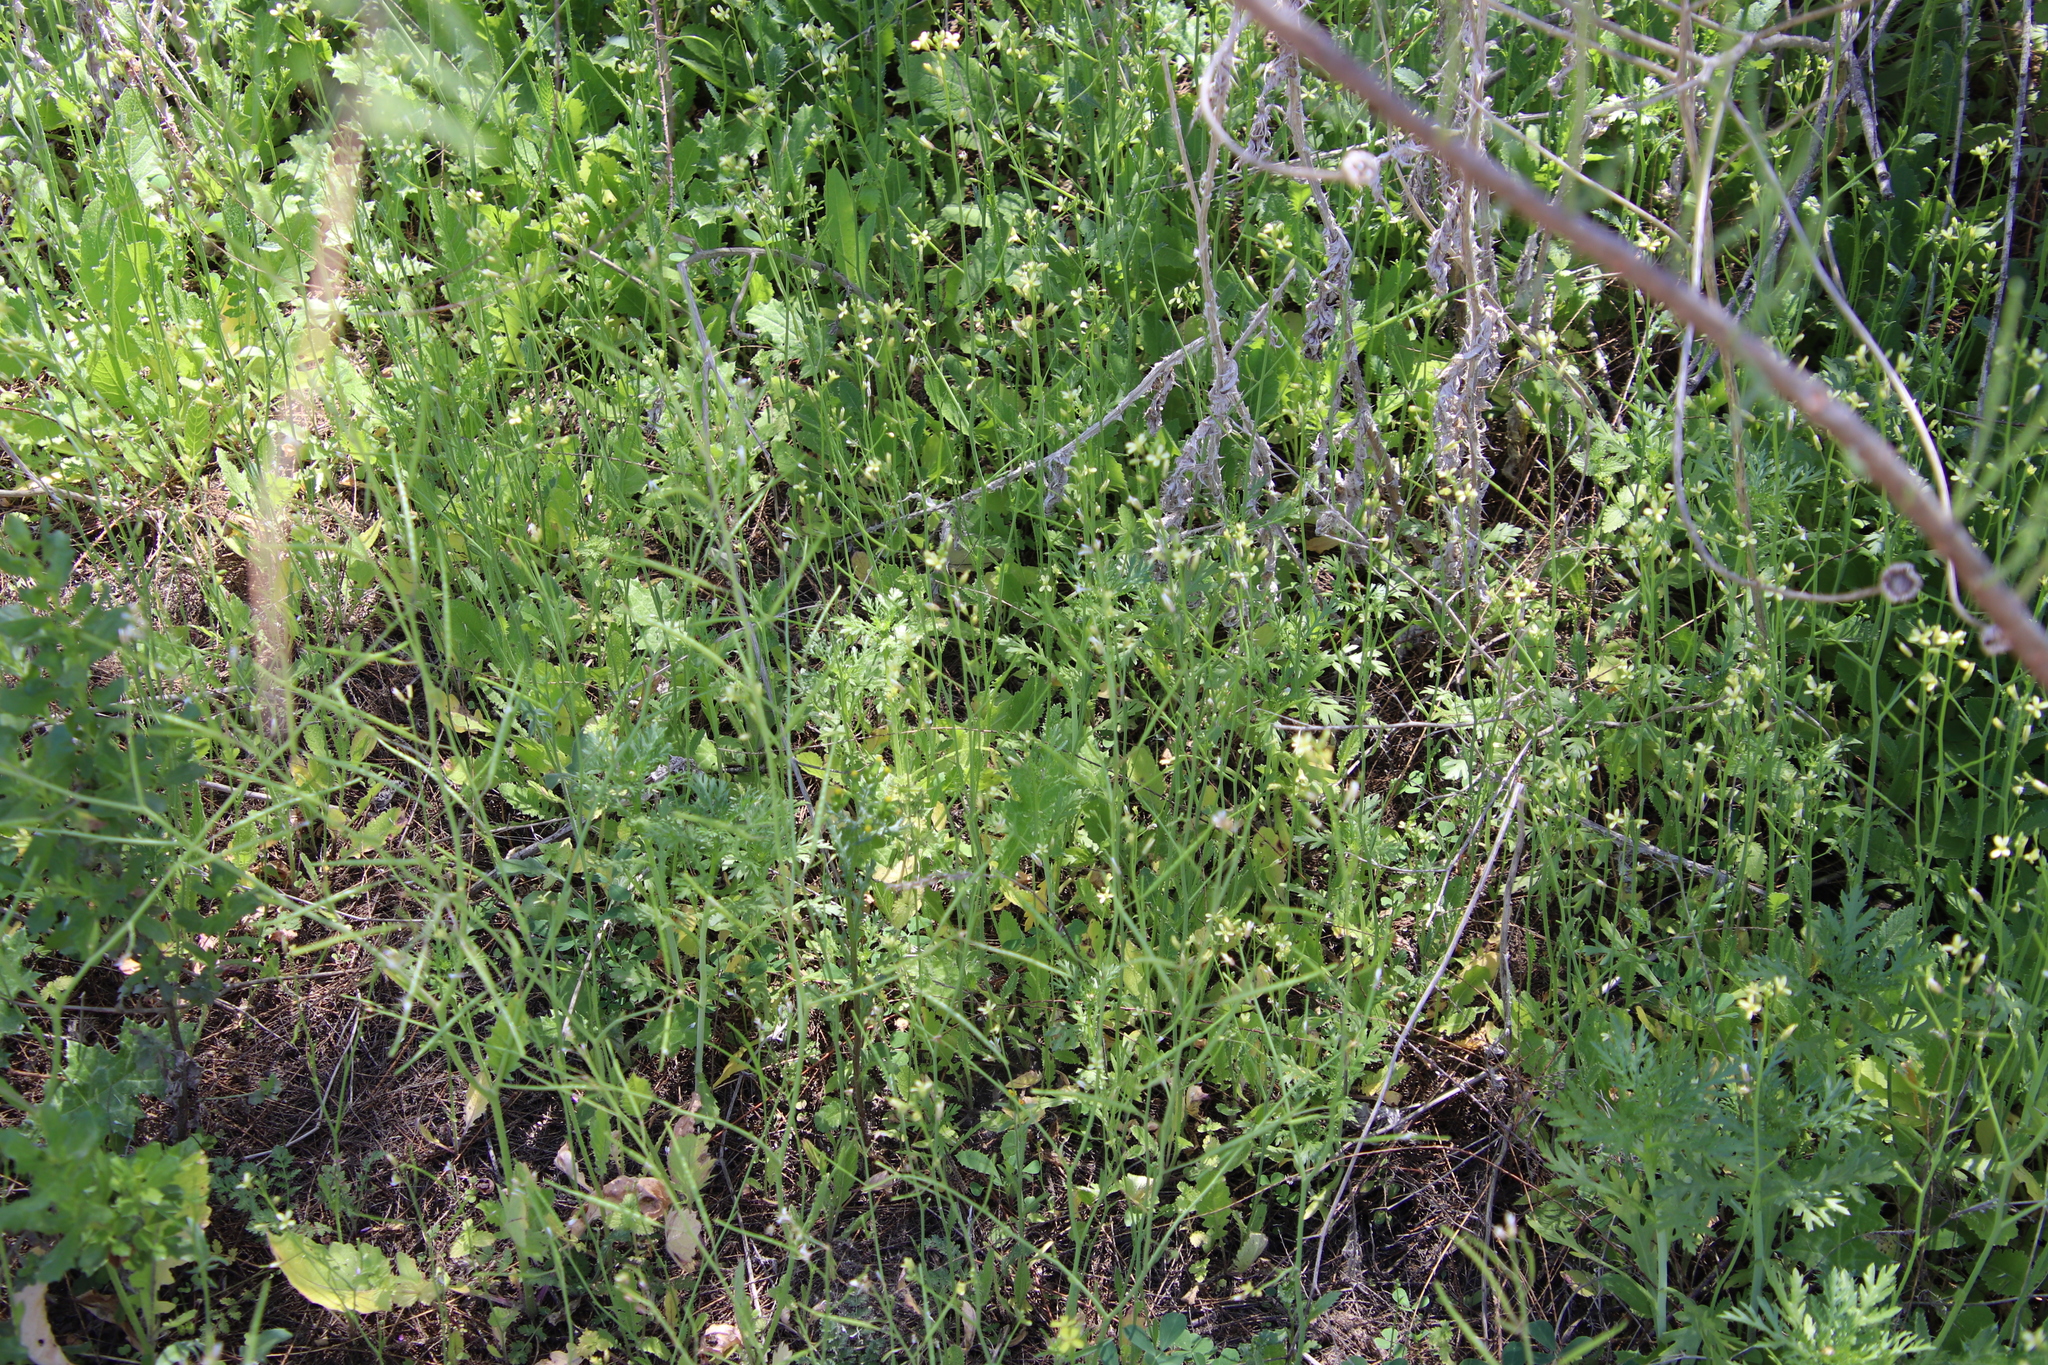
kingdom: Plantae
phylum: Tracheophyta
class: Magnoliopsida
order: Brassicales
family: Brassicaceae
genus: Brassica
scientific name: Brassica tournefortii
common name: Pale cabbage
